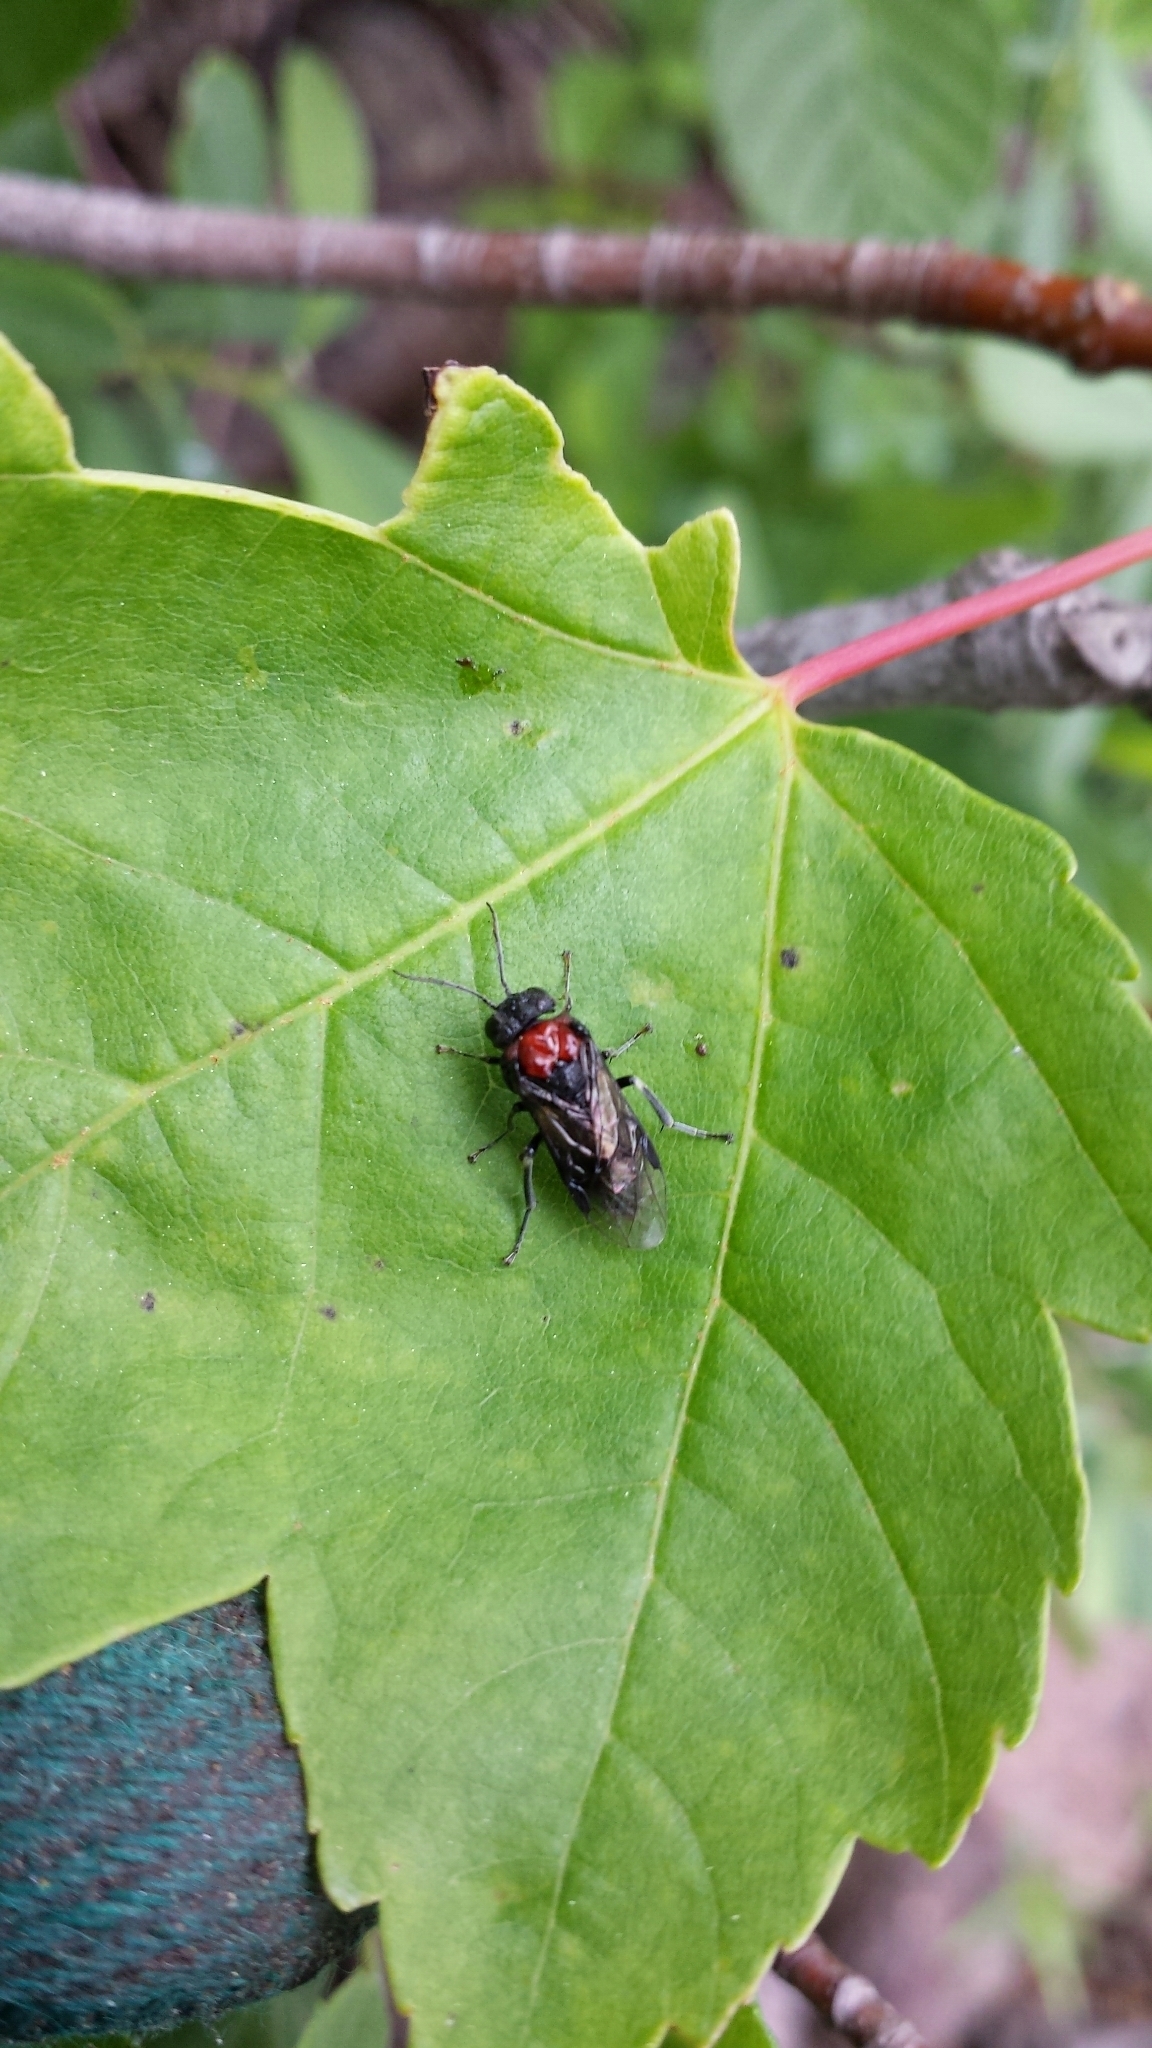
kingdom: Animalia
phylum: Arthropoda
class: Insecta
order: Hymenoptera
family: Tenthredinidae
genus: Eriocampa
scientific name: Eriocampa ovata
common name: Alder wooly sawfly
